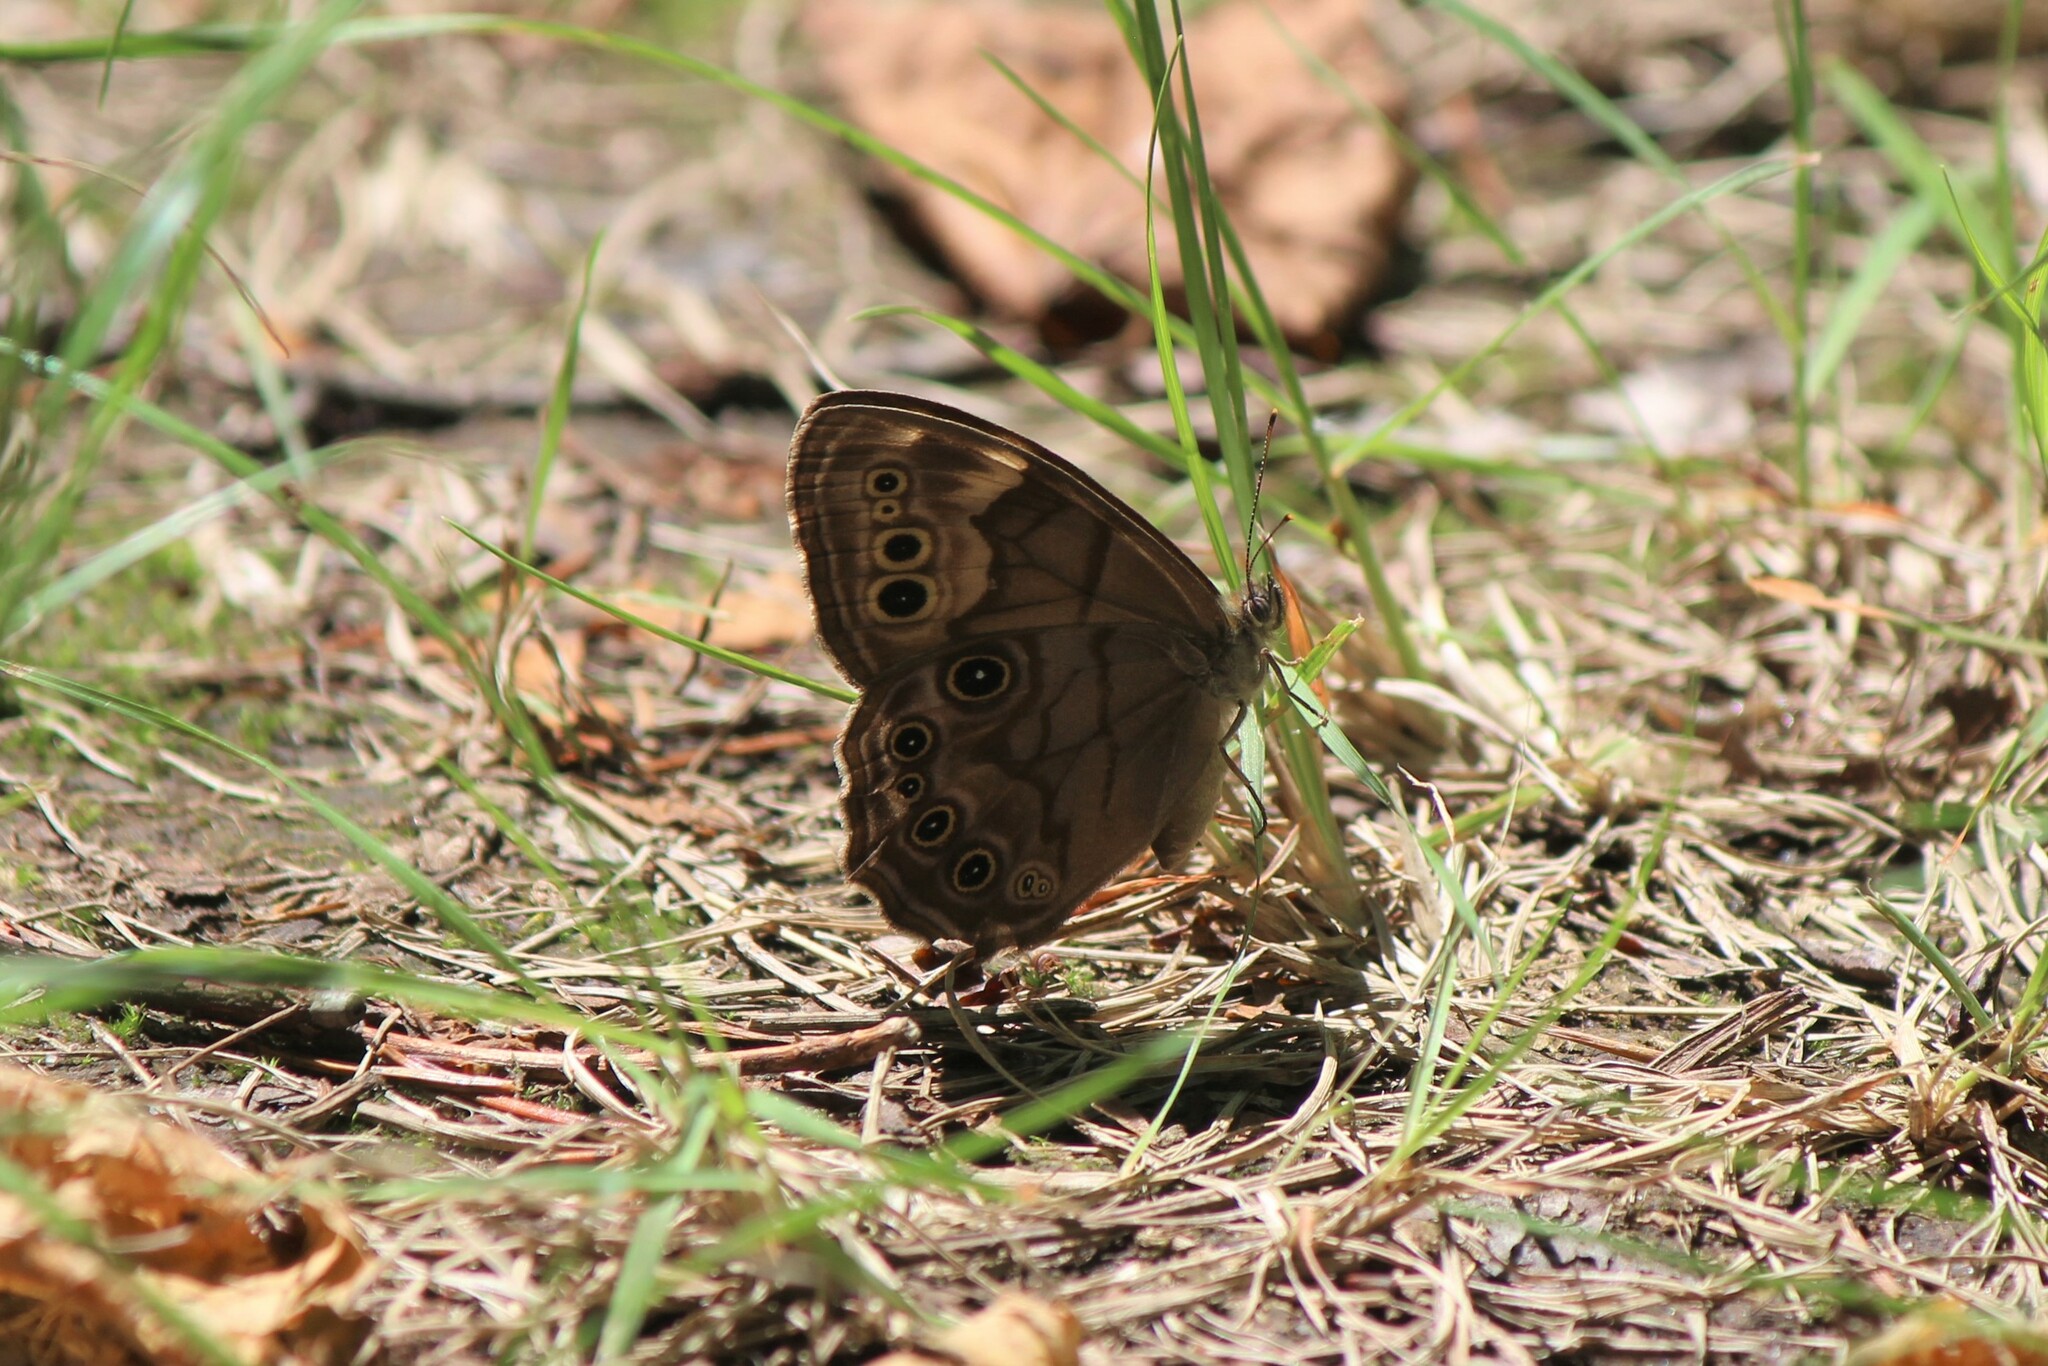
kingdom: Animalia
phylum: Arthropoda
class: Insecta
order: Lepidoptera
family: Nymphalidae
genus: Lethe
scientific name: Lethe anthedon
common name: Northern pearly-eye
